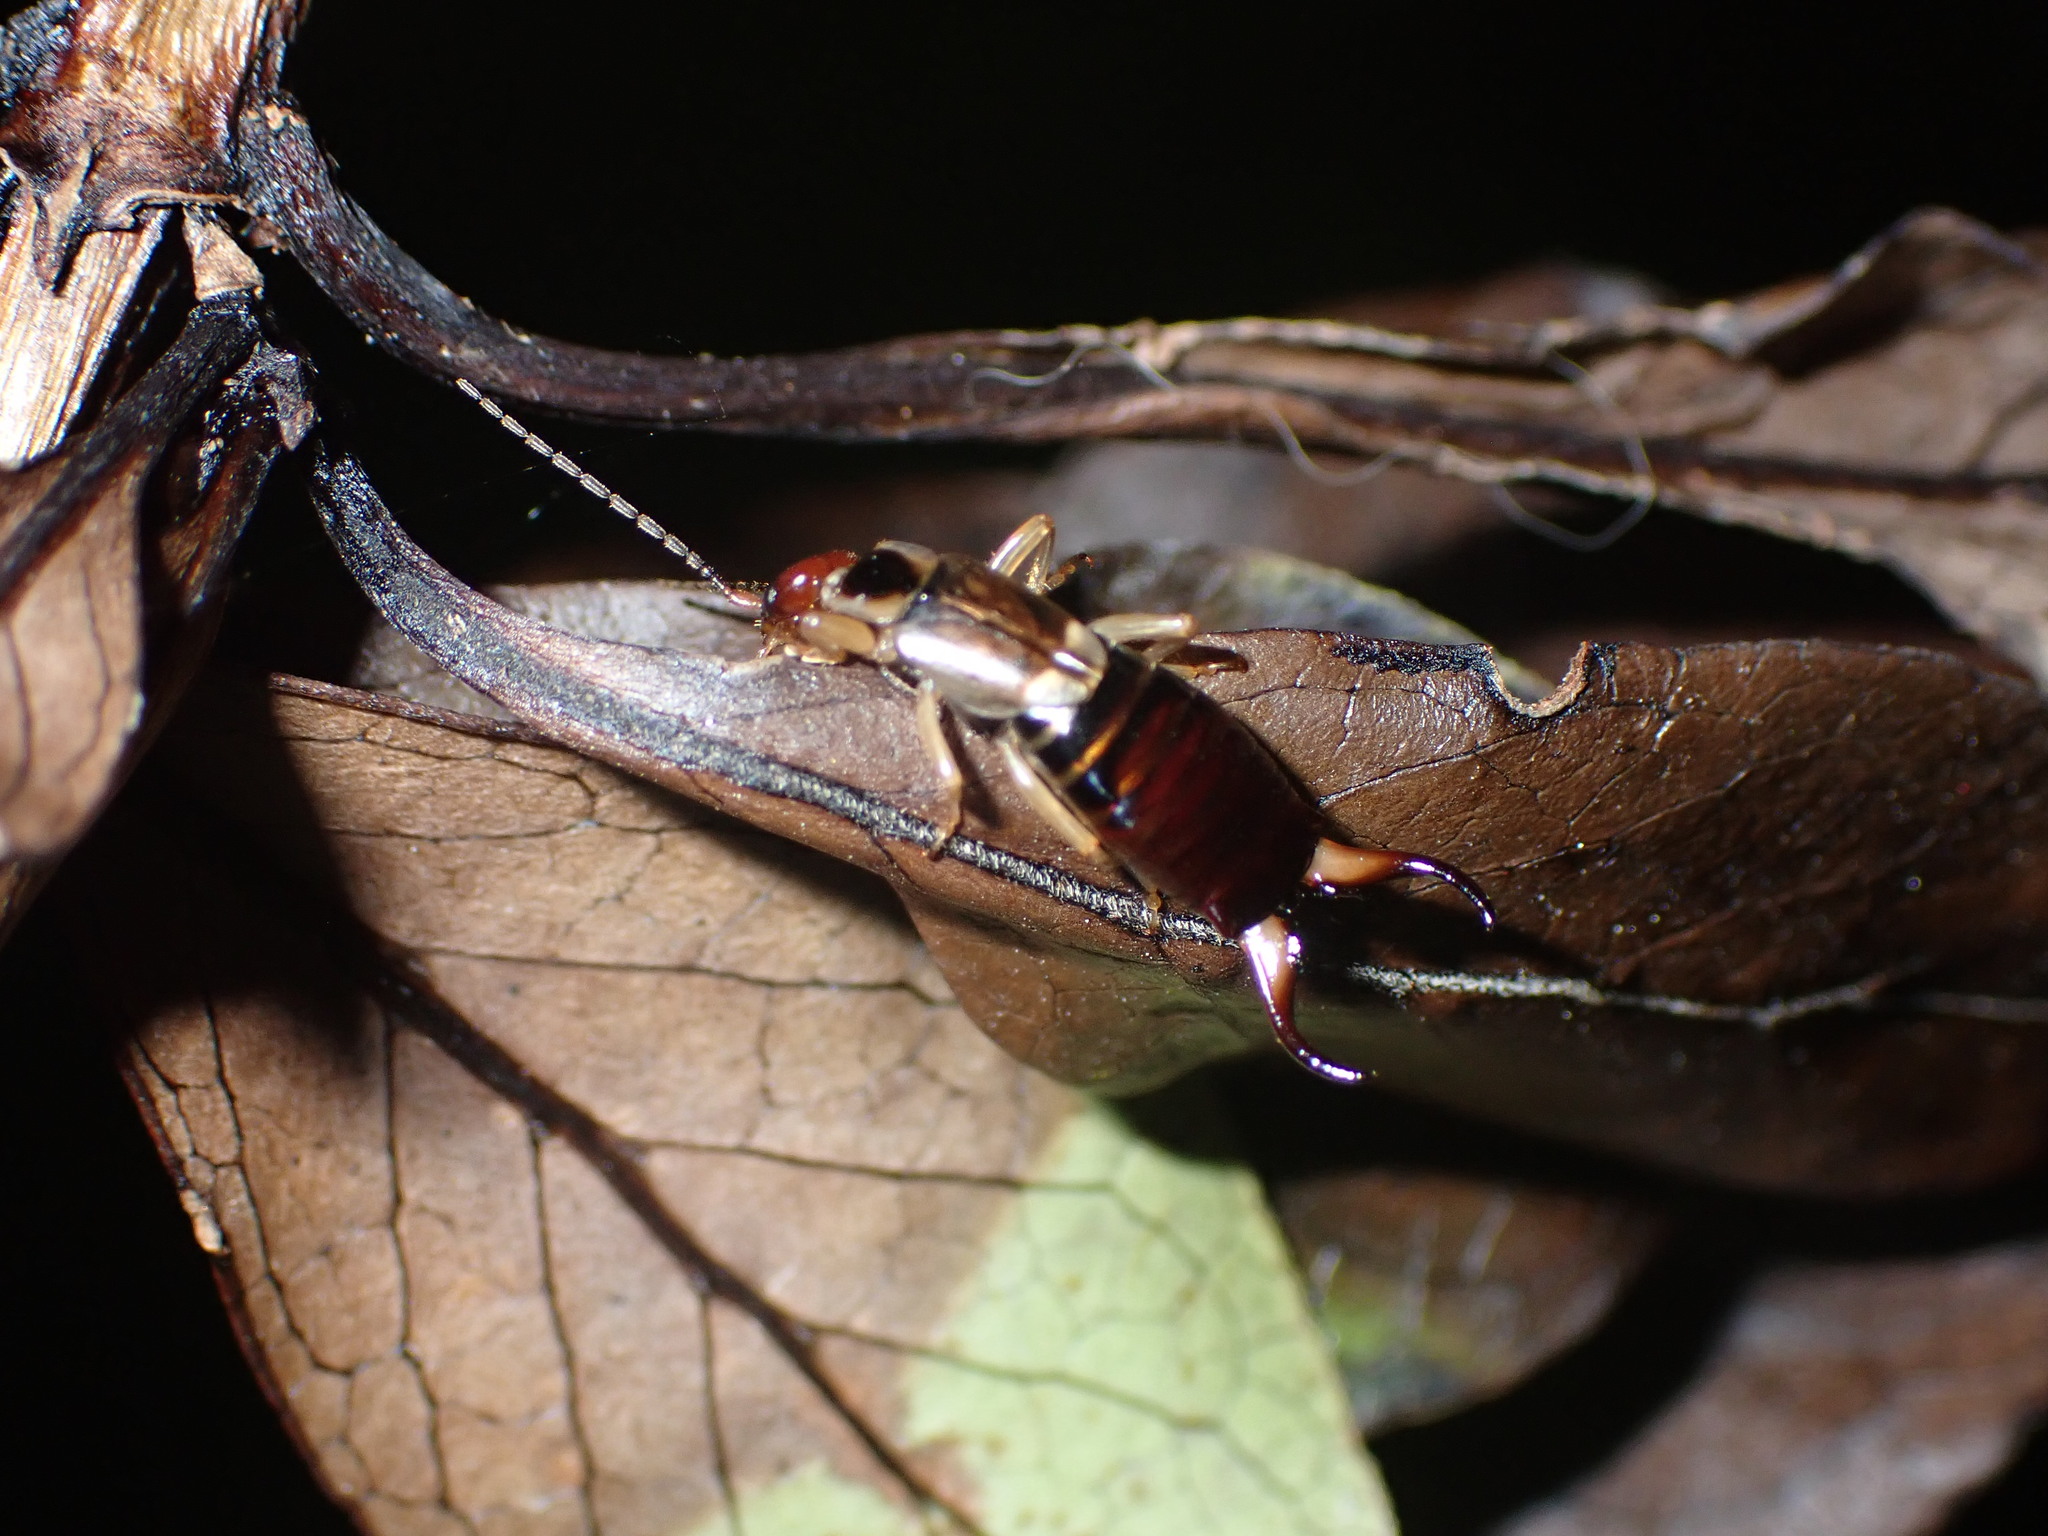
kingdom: Animalia
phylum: Arthropoda
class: Insecta
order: Dermaptera
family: Forficulidae
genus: Forficula
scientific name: Forficula
